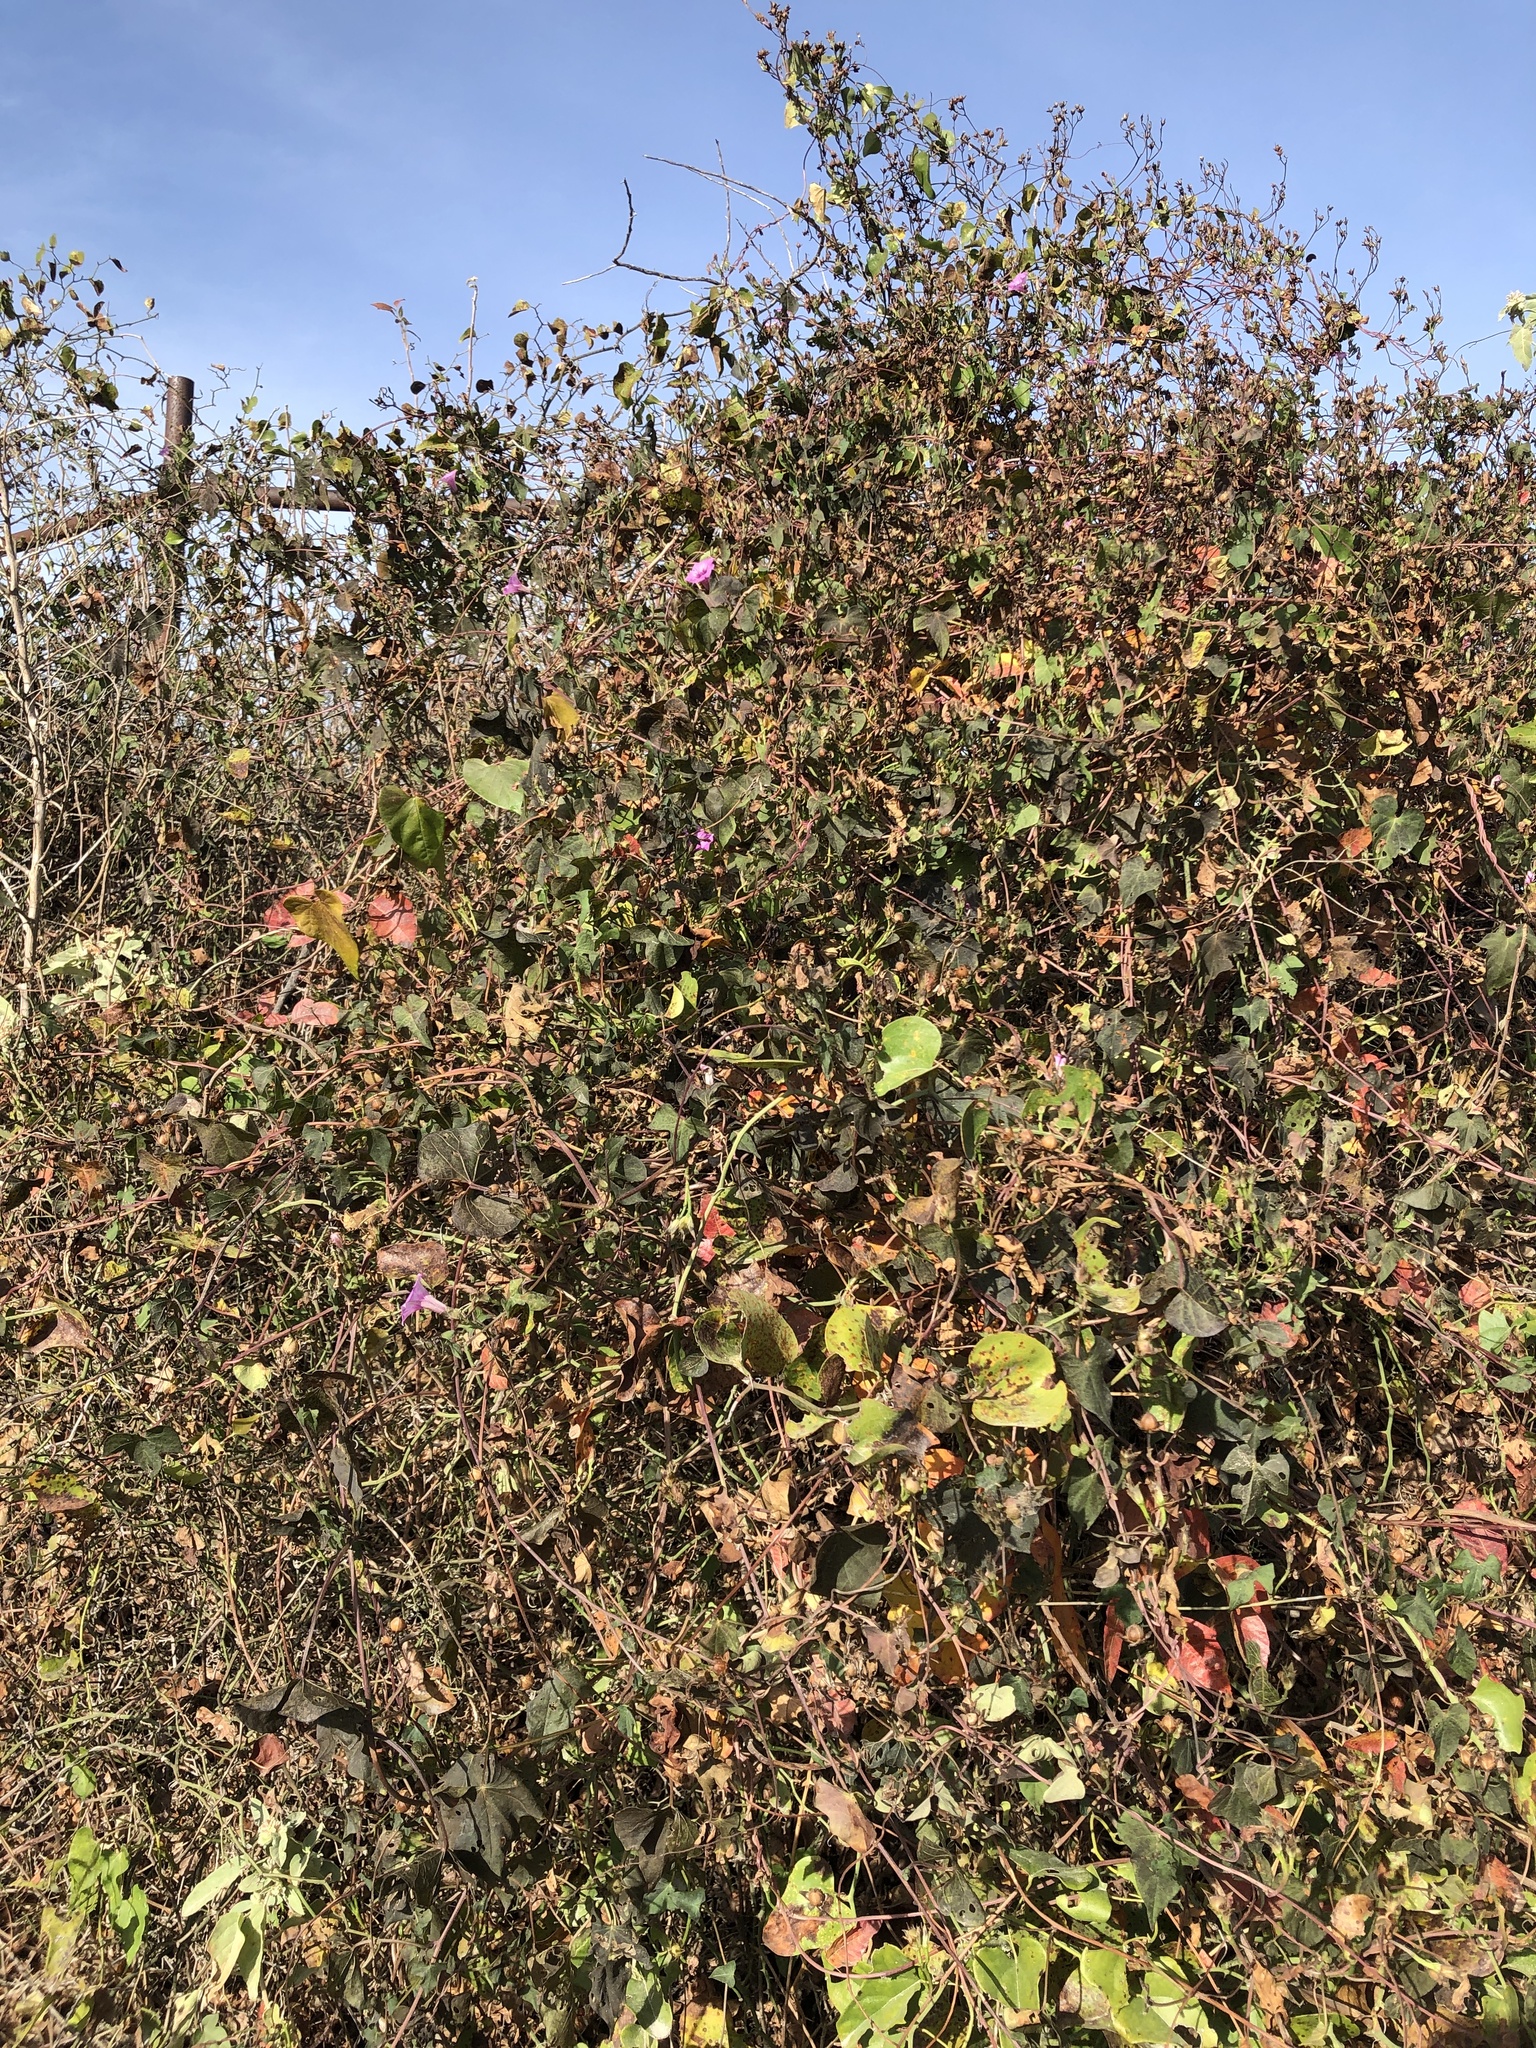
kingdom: Plantae
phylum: Tracheophyta
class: Magnoliopsida
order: Solanales
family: Convolvulaceae
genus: Ipomoea
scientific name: Ipomoea cordatotriloba
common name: Cotton morning glory
